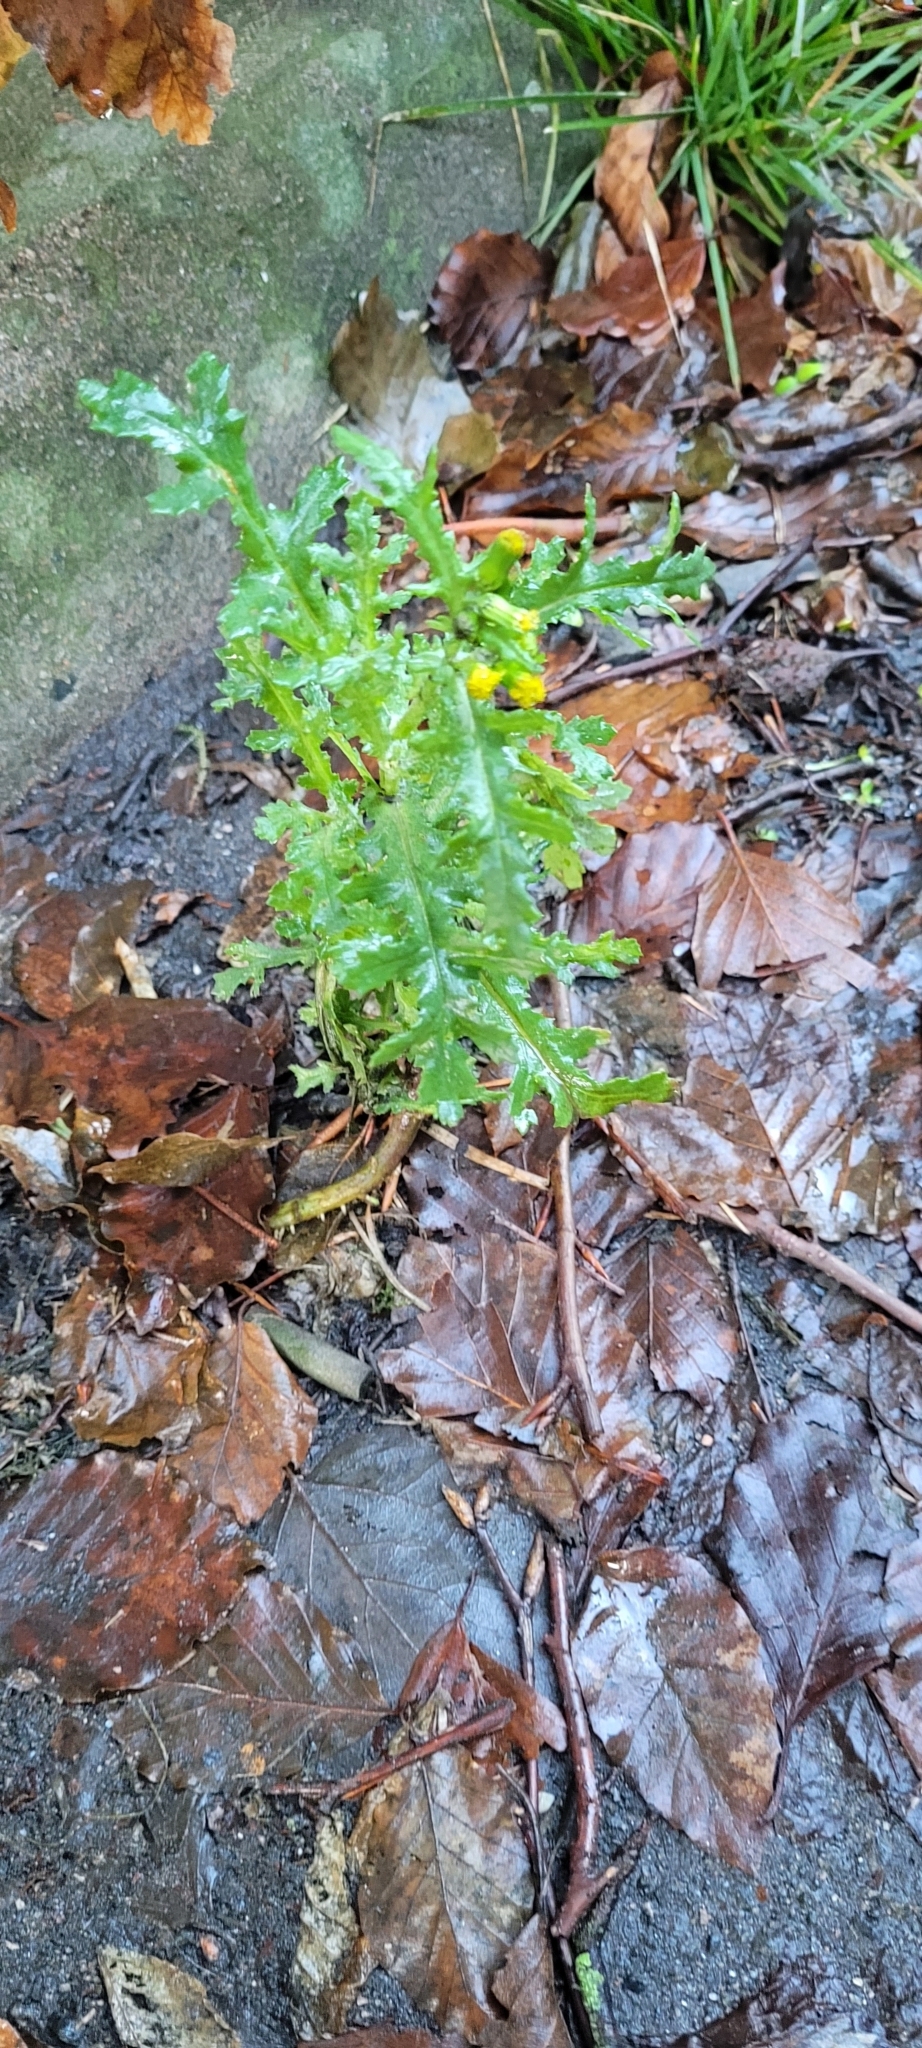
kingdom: Plantae
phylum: Tracheophyta
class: Magnoliopsida
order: Asterales
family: Asteraceae
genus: Senecio
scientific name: Senecio vulgaris
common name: Old-man-in-the-spring
